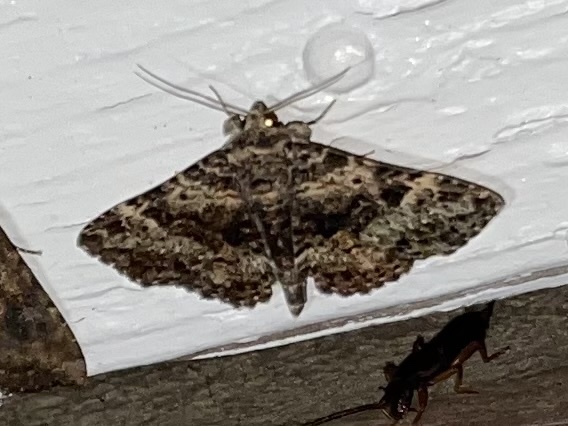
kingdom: Animalia
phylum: Arthropoda
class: Insecta
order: Lepidoptera
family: Erebidae
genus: Metalectra
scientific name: Metalectra discalis
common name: Common fungus moth
